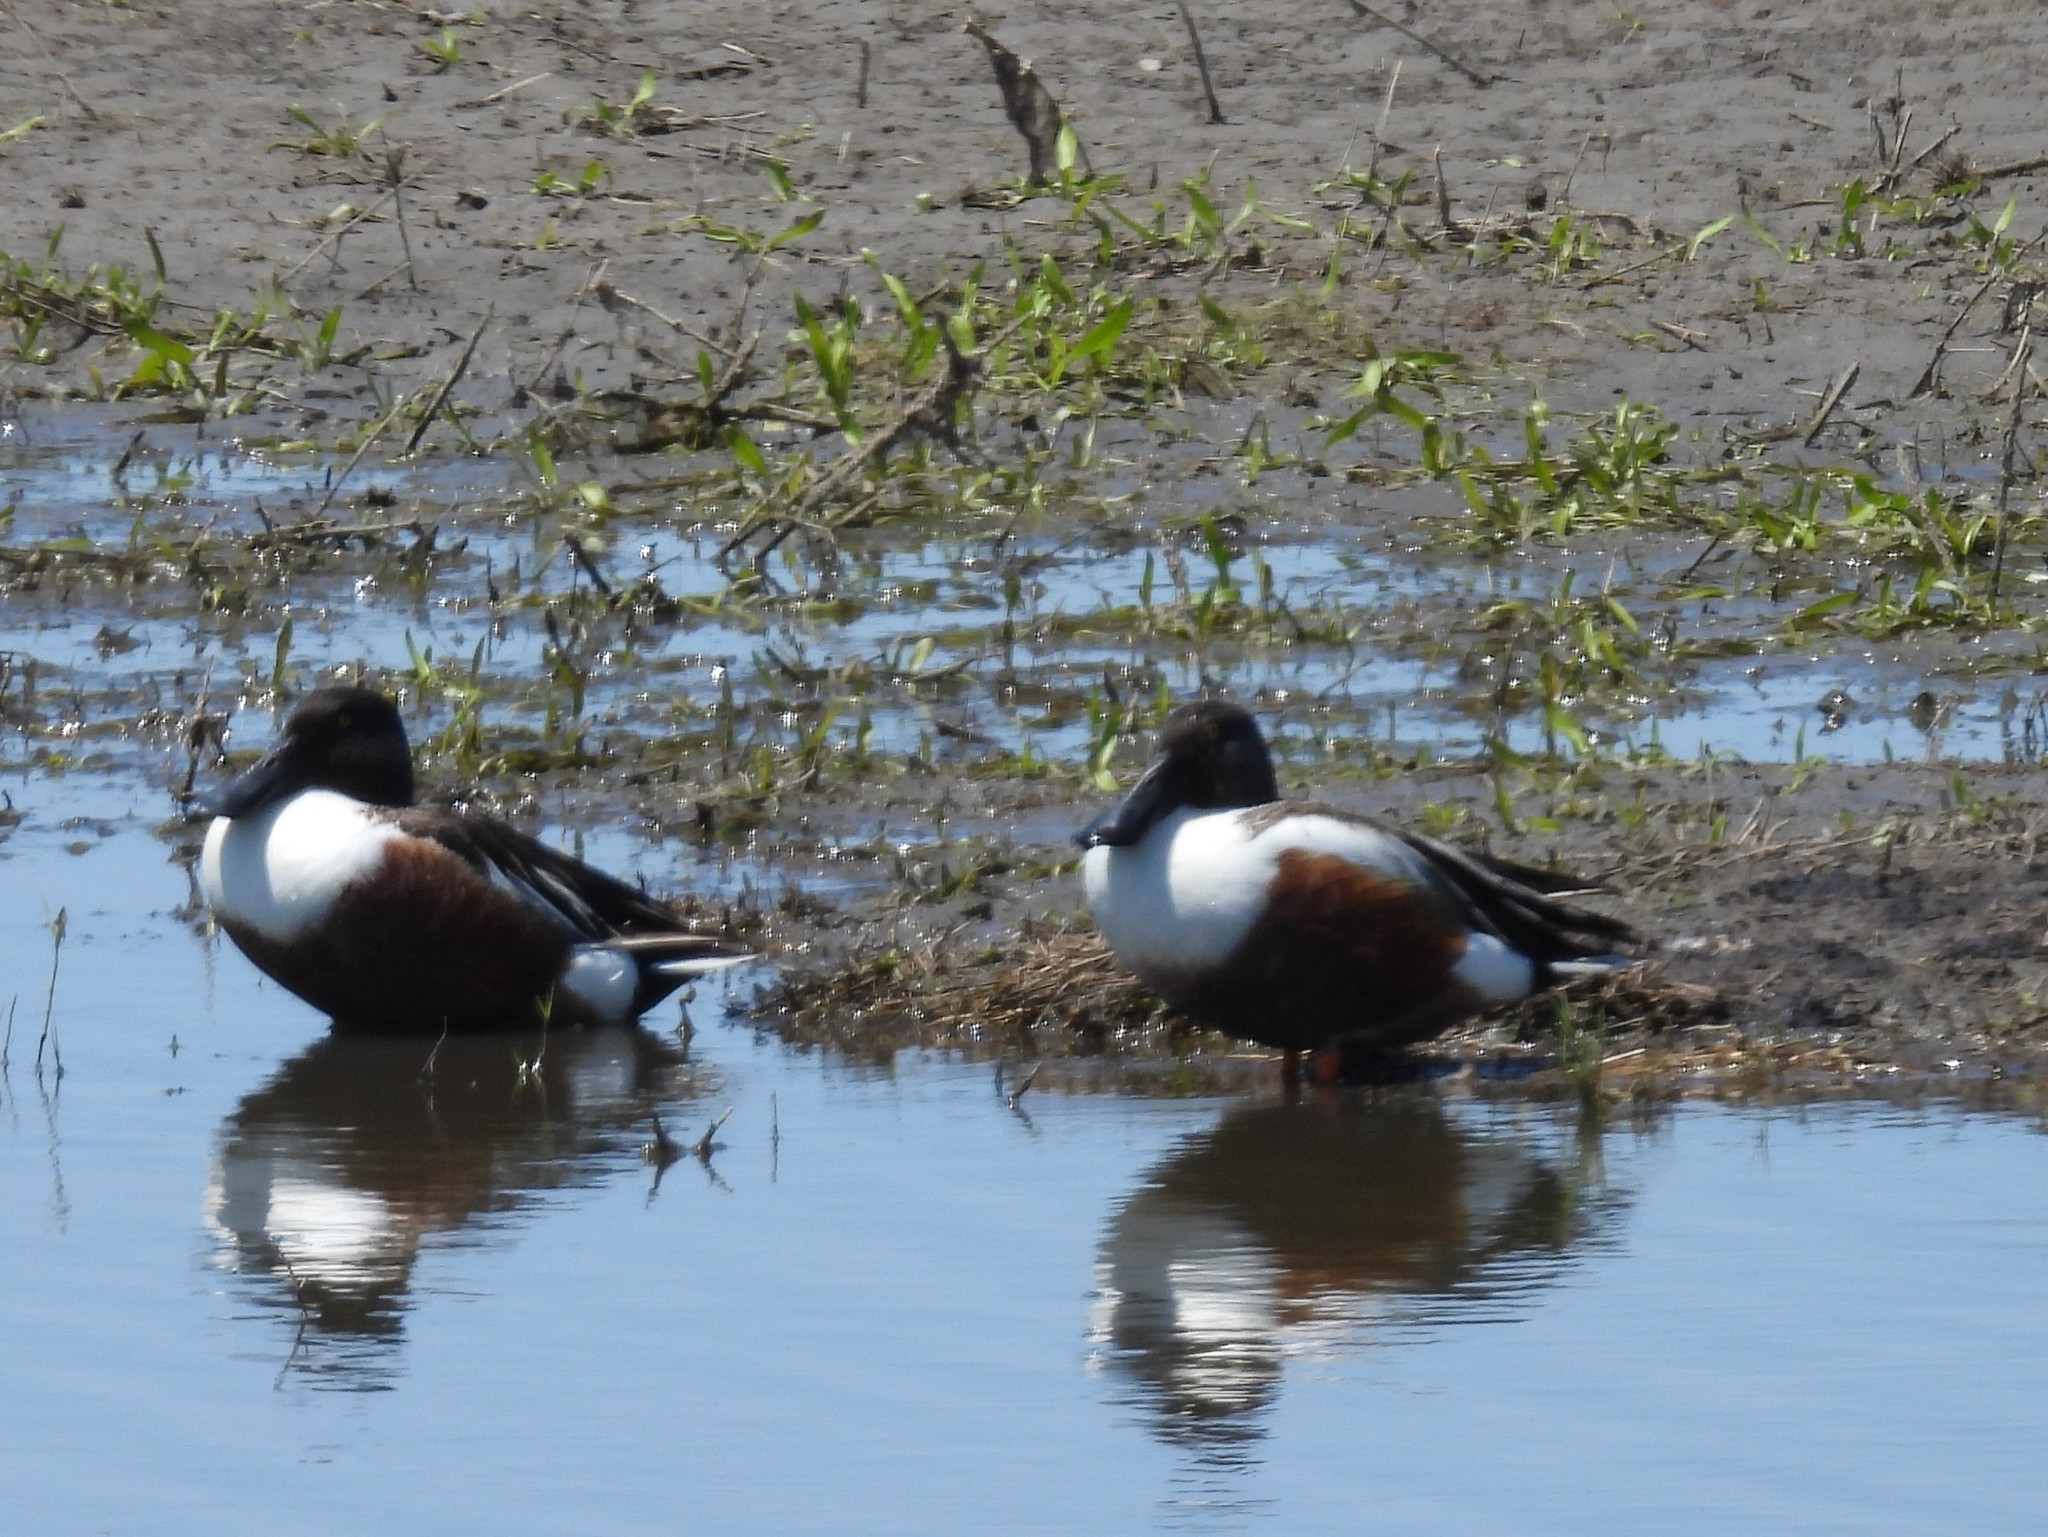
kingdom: Animalia
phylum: Chordata
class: Aves
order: Anseriformes
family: Anatidae
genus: Spatula
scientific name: Spatula clypeata
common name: Northern shoveler
